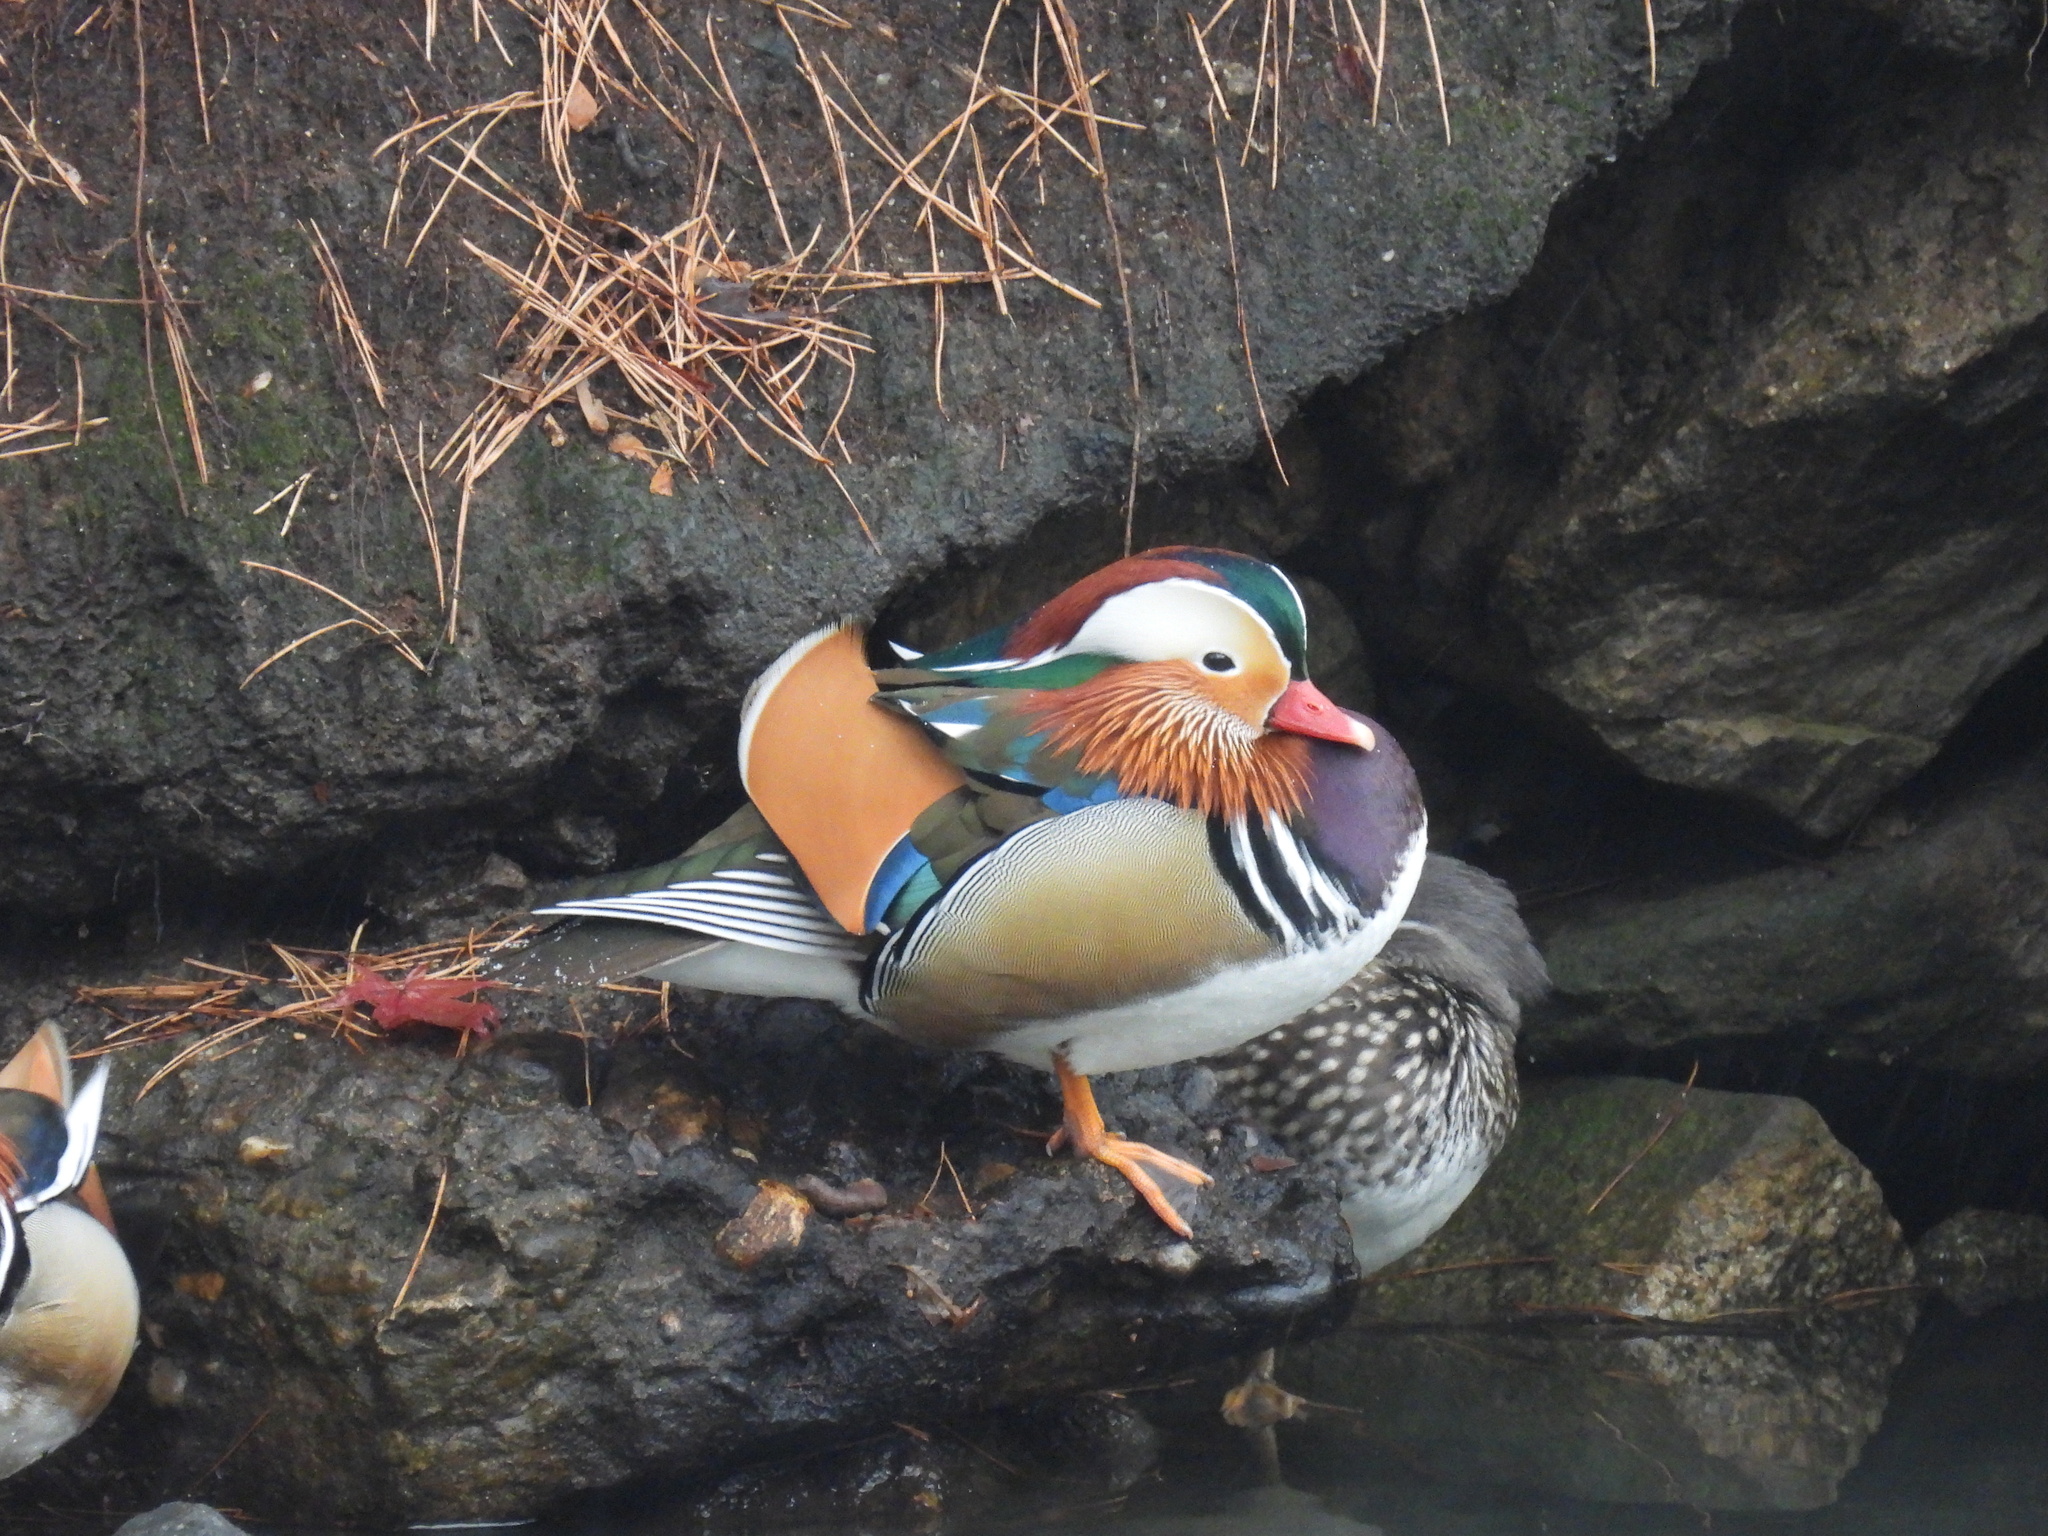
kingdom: Animalia
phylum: Chordata
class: Aves
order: Anseriformes
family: Anatidae
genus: Aix
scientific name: Aix galericulata
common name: Mandarin duck
